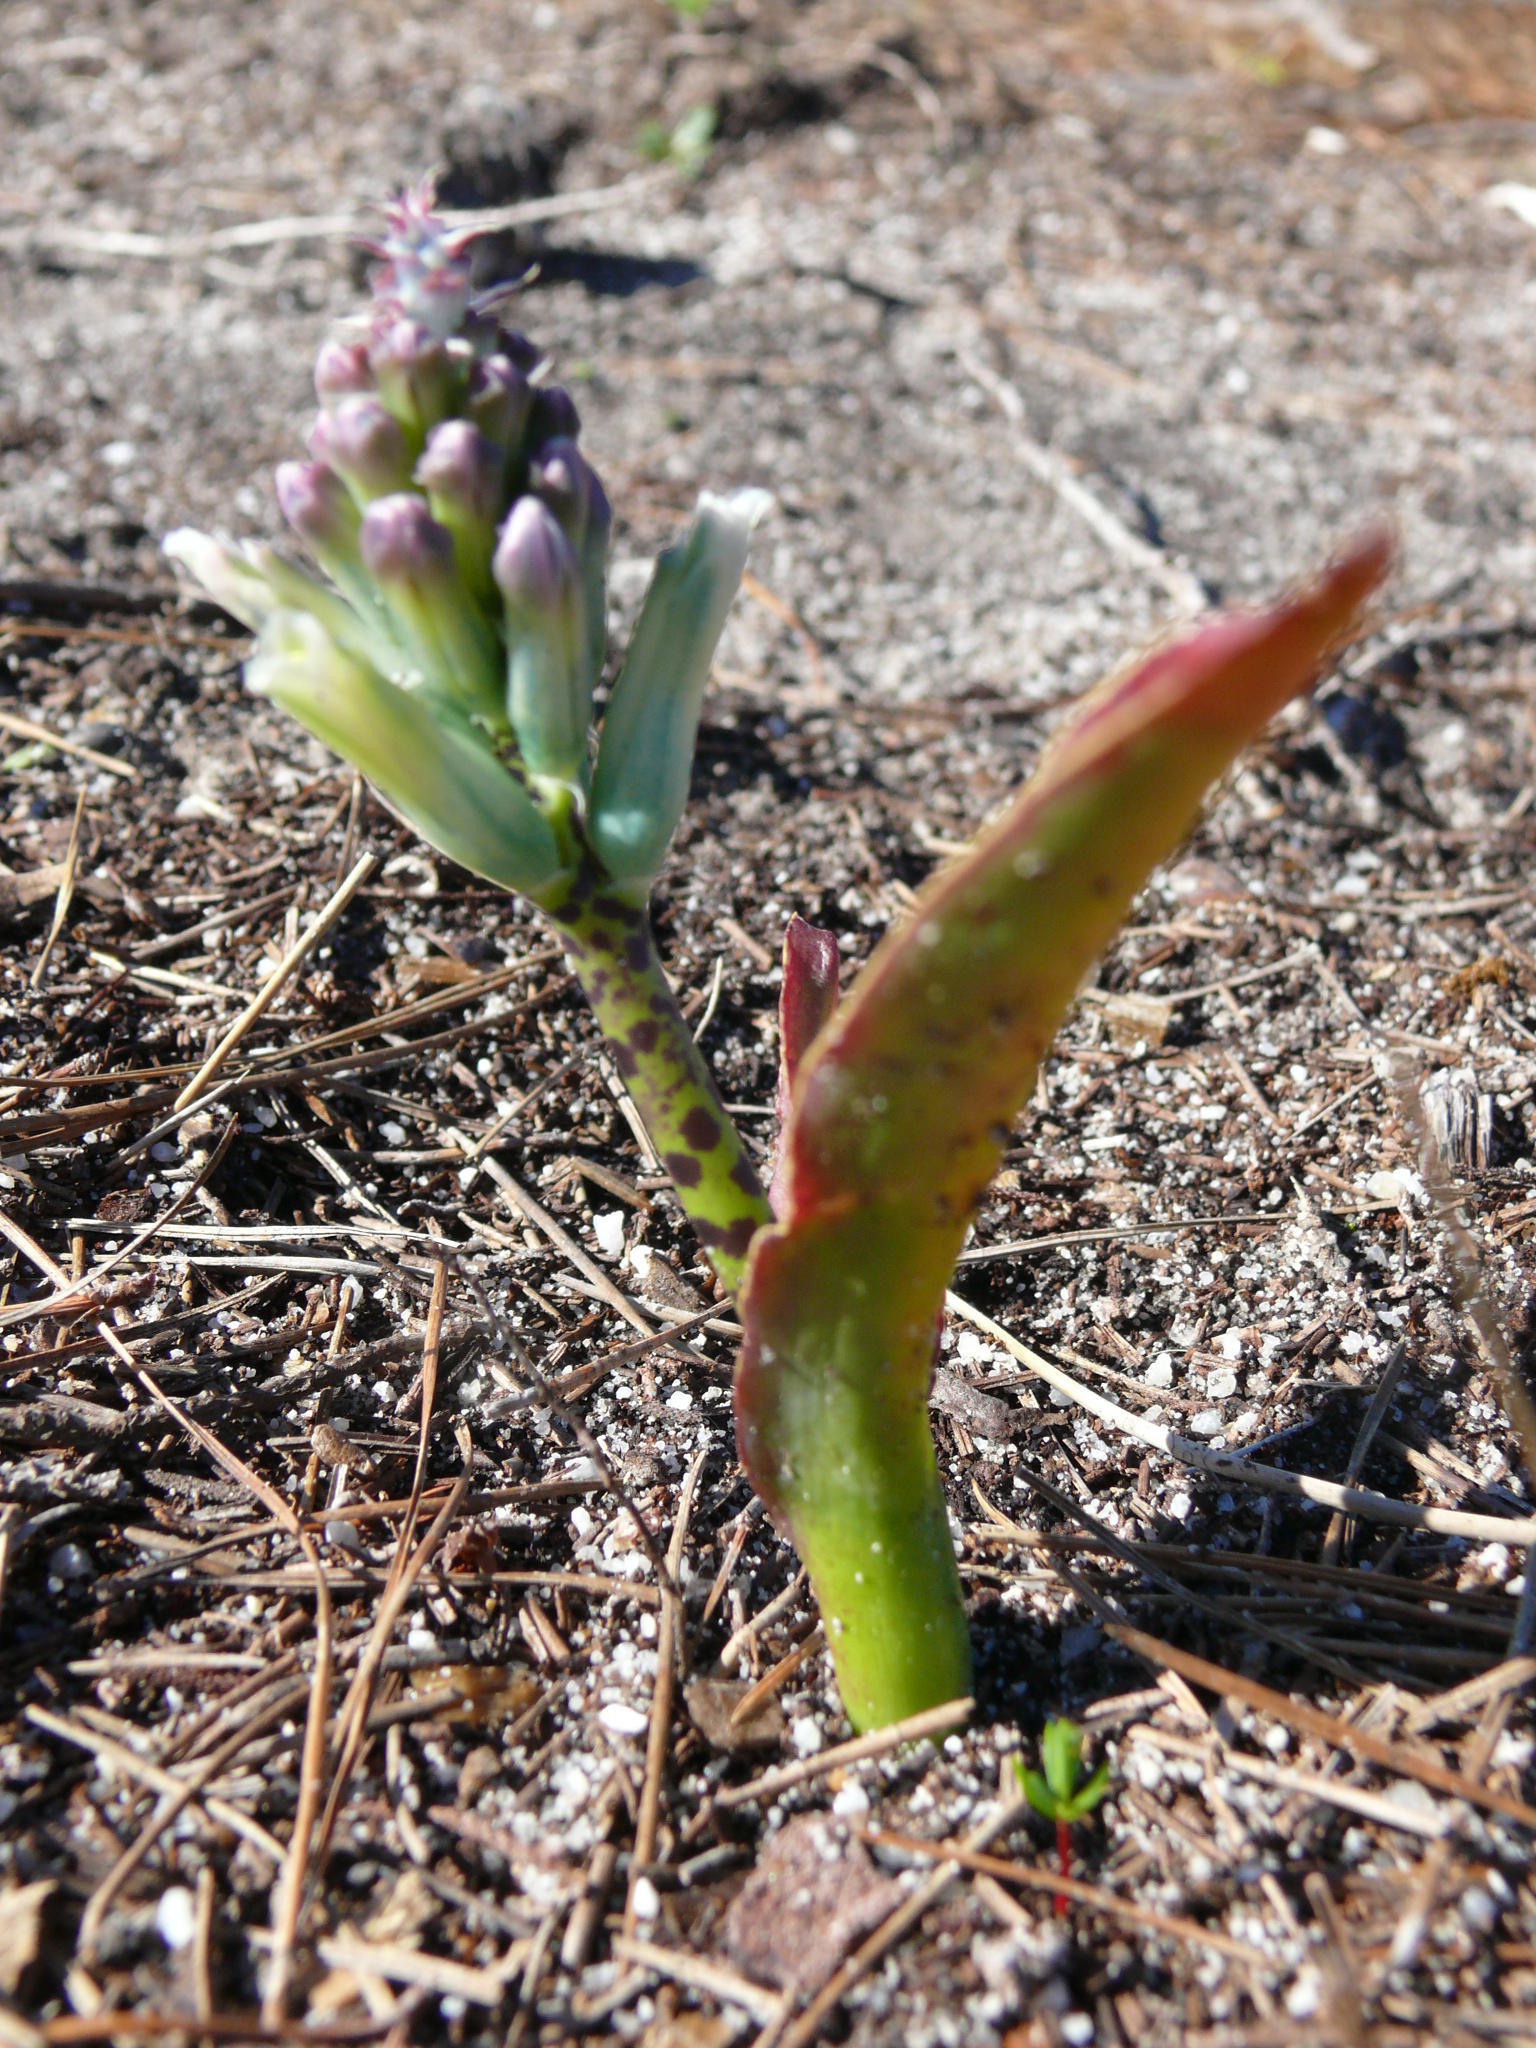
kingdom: Plantae
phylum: Tracheophyta
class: Liliopsida
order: Asparagales
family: Asparagaceae
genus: Lachenalia
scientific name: Lachenalia orchioides
